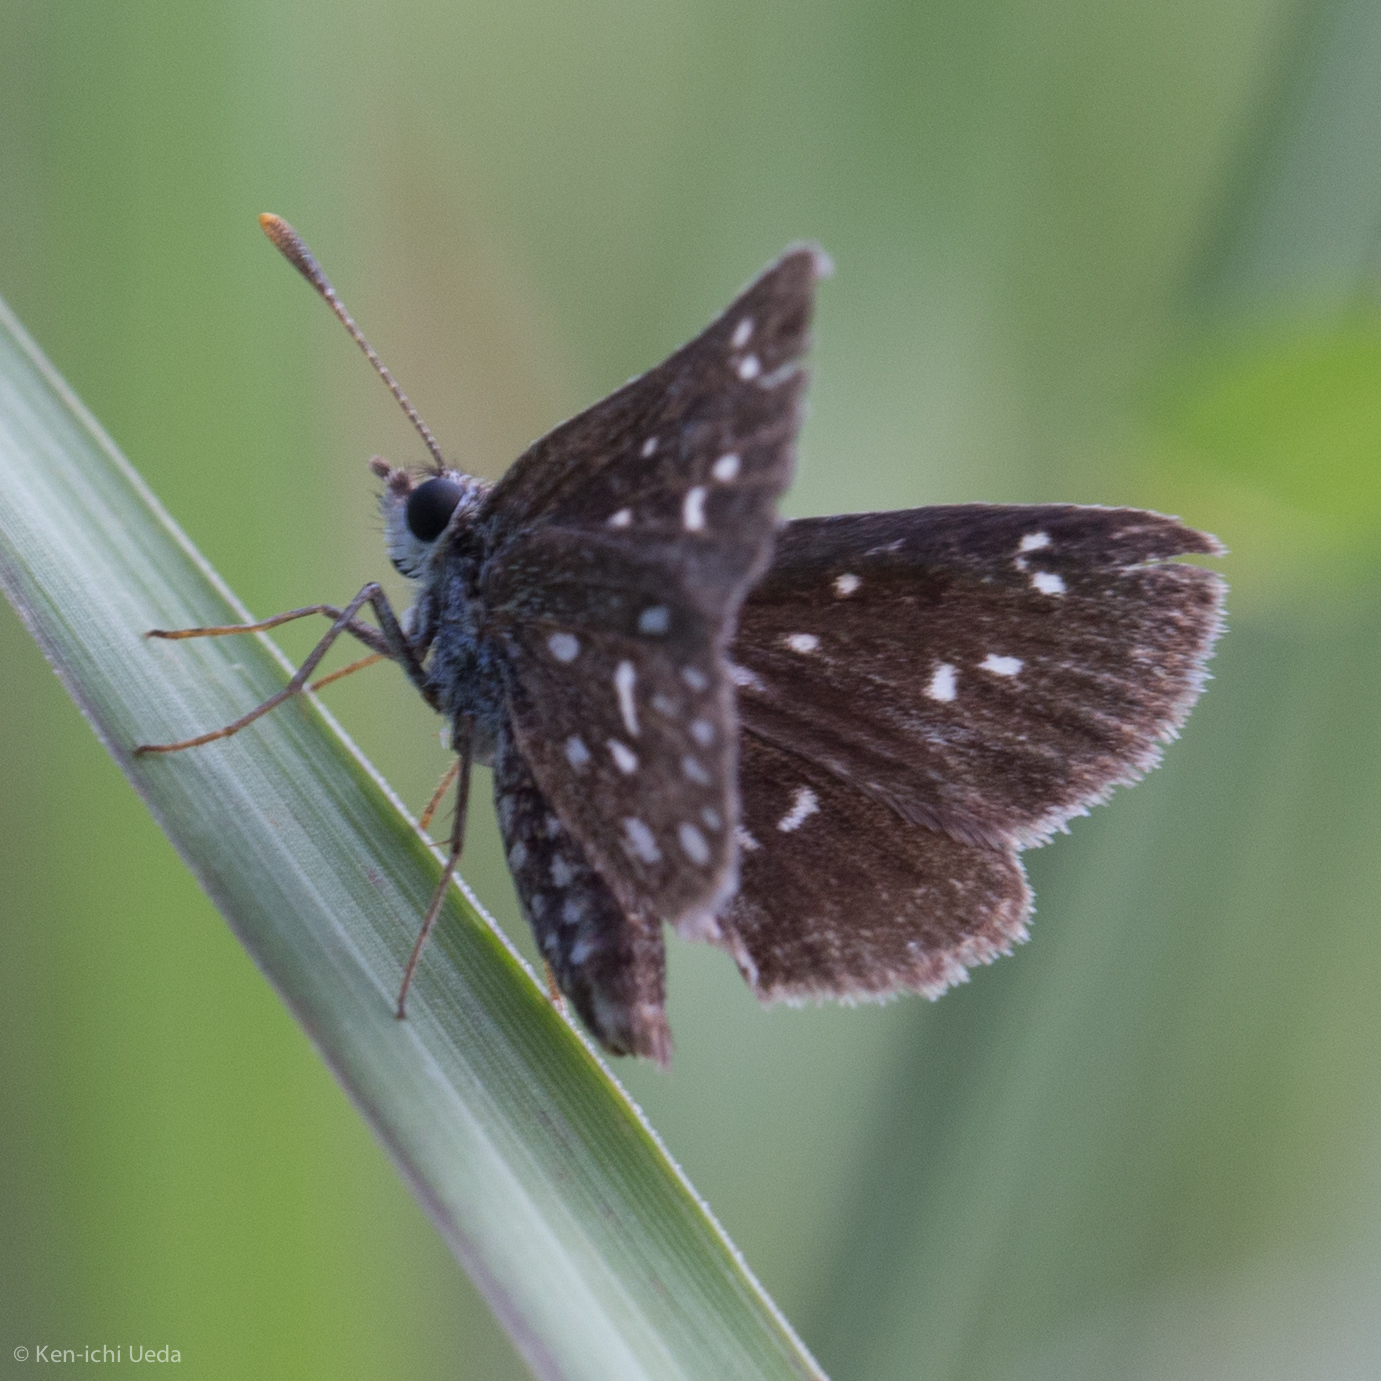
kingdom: Animalia
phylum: Arthropoda
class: Insecta
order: Lepidoptera
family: Hesperiidae
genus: Piruna
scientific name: Piruna aea
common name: Many-spotted skipperling
